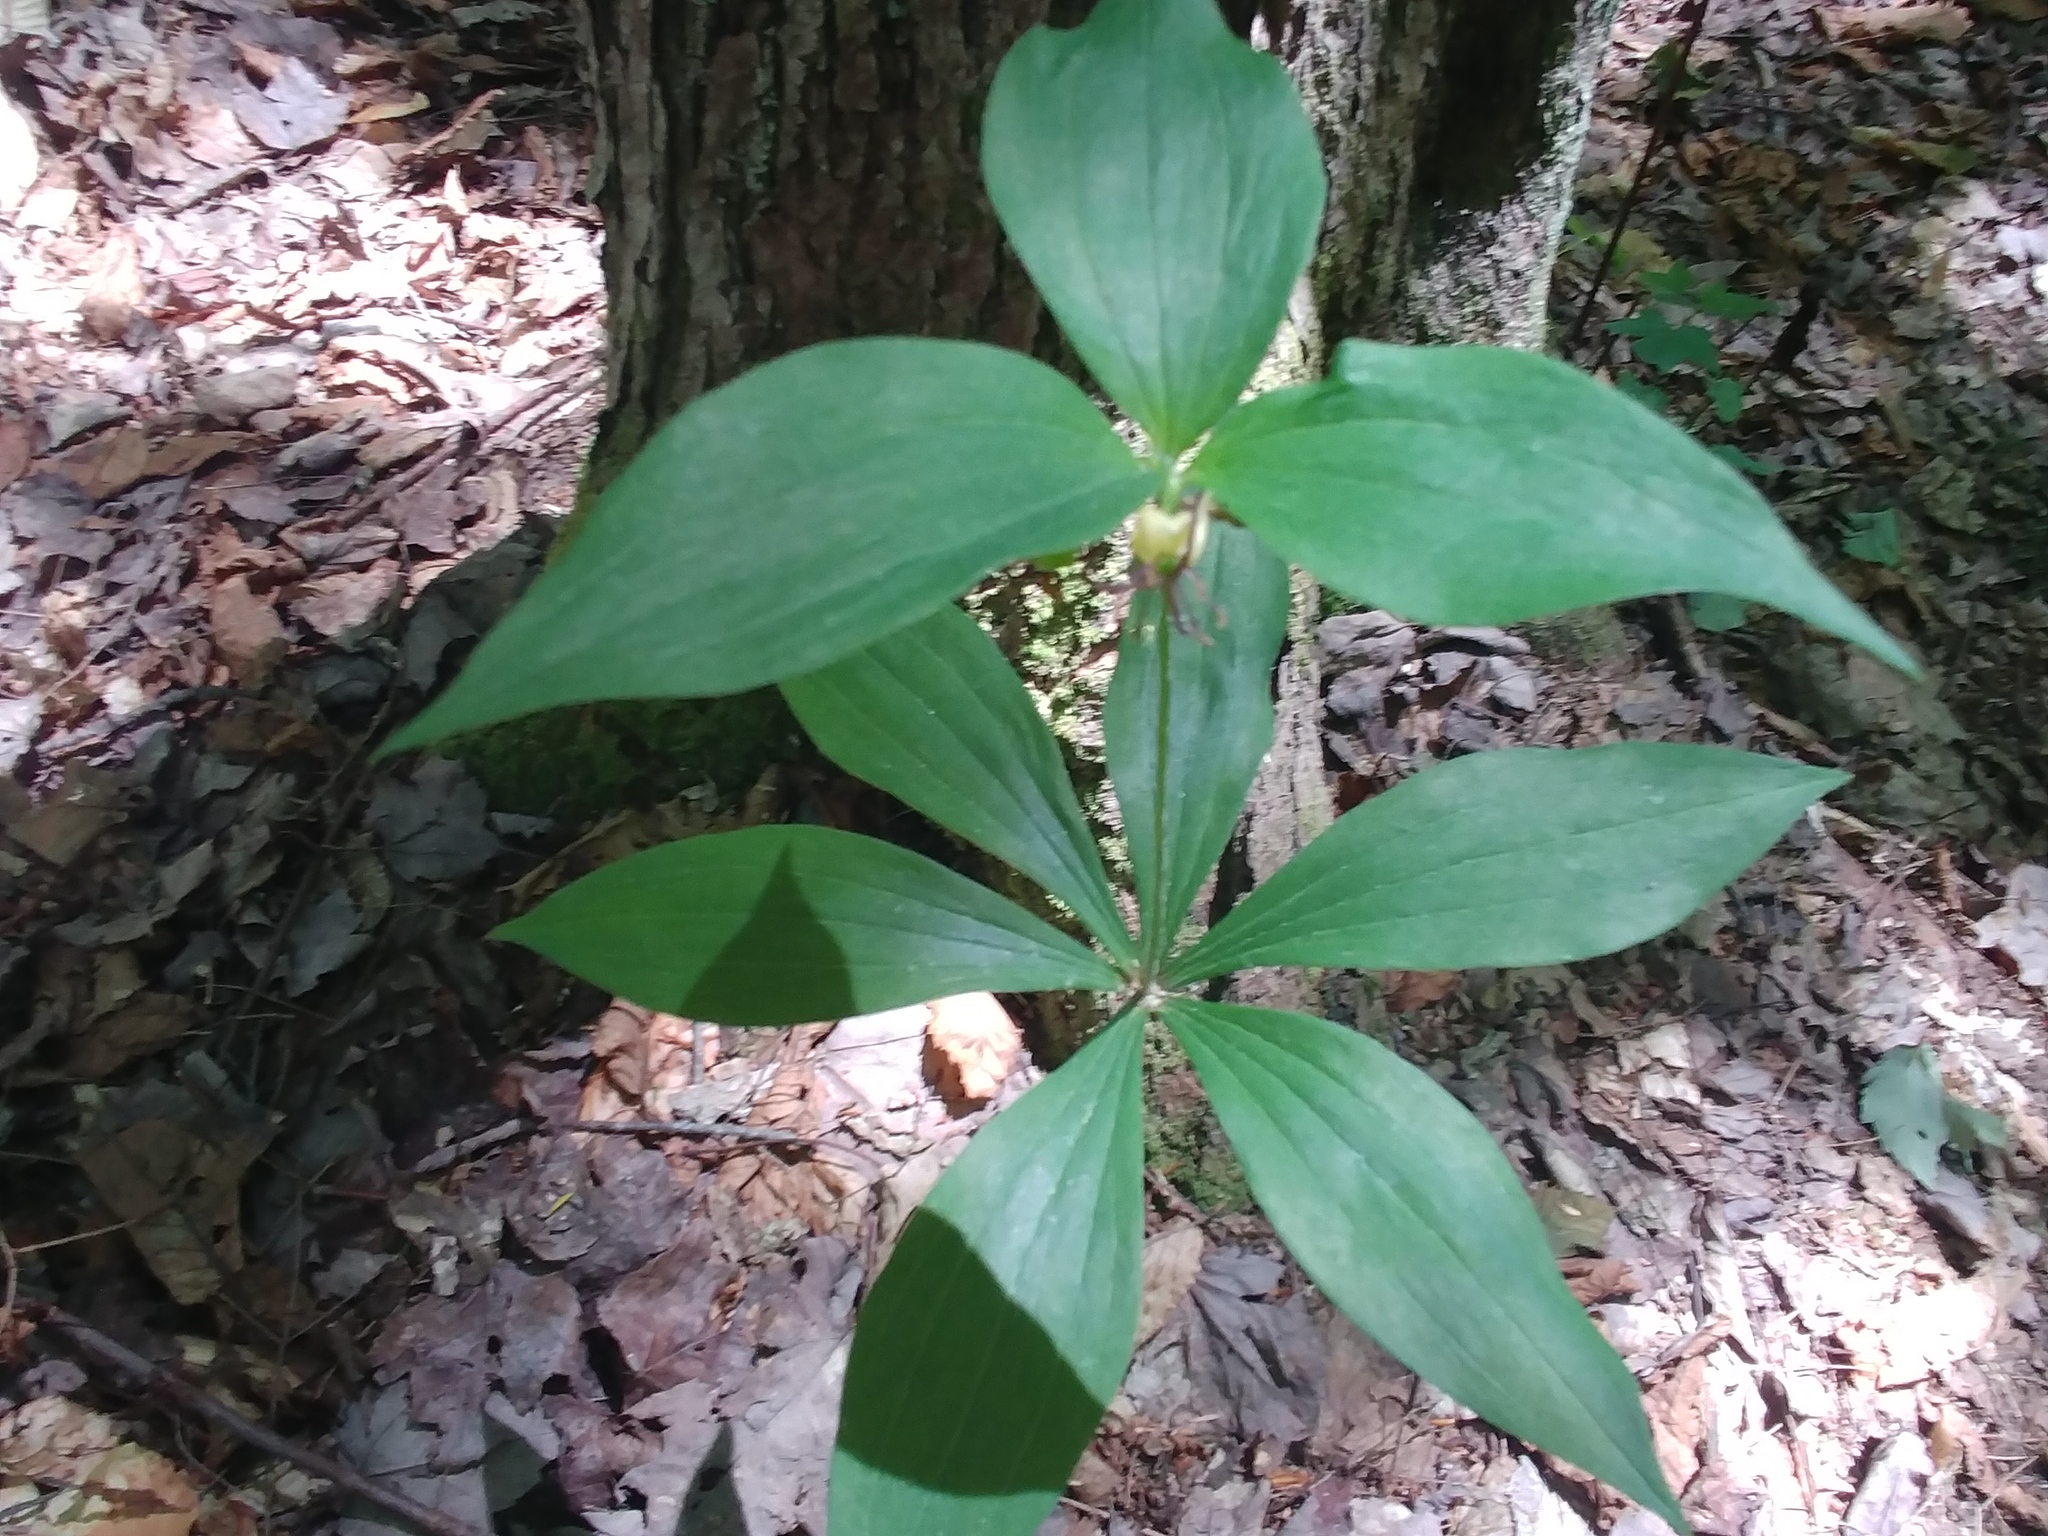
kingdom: Plantae
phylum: Tracheophyta
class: Liliopsida
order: Liliales
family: Liliaceae
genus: Medeola
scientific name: Medeola virginiana
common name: Indian cucumber-root
